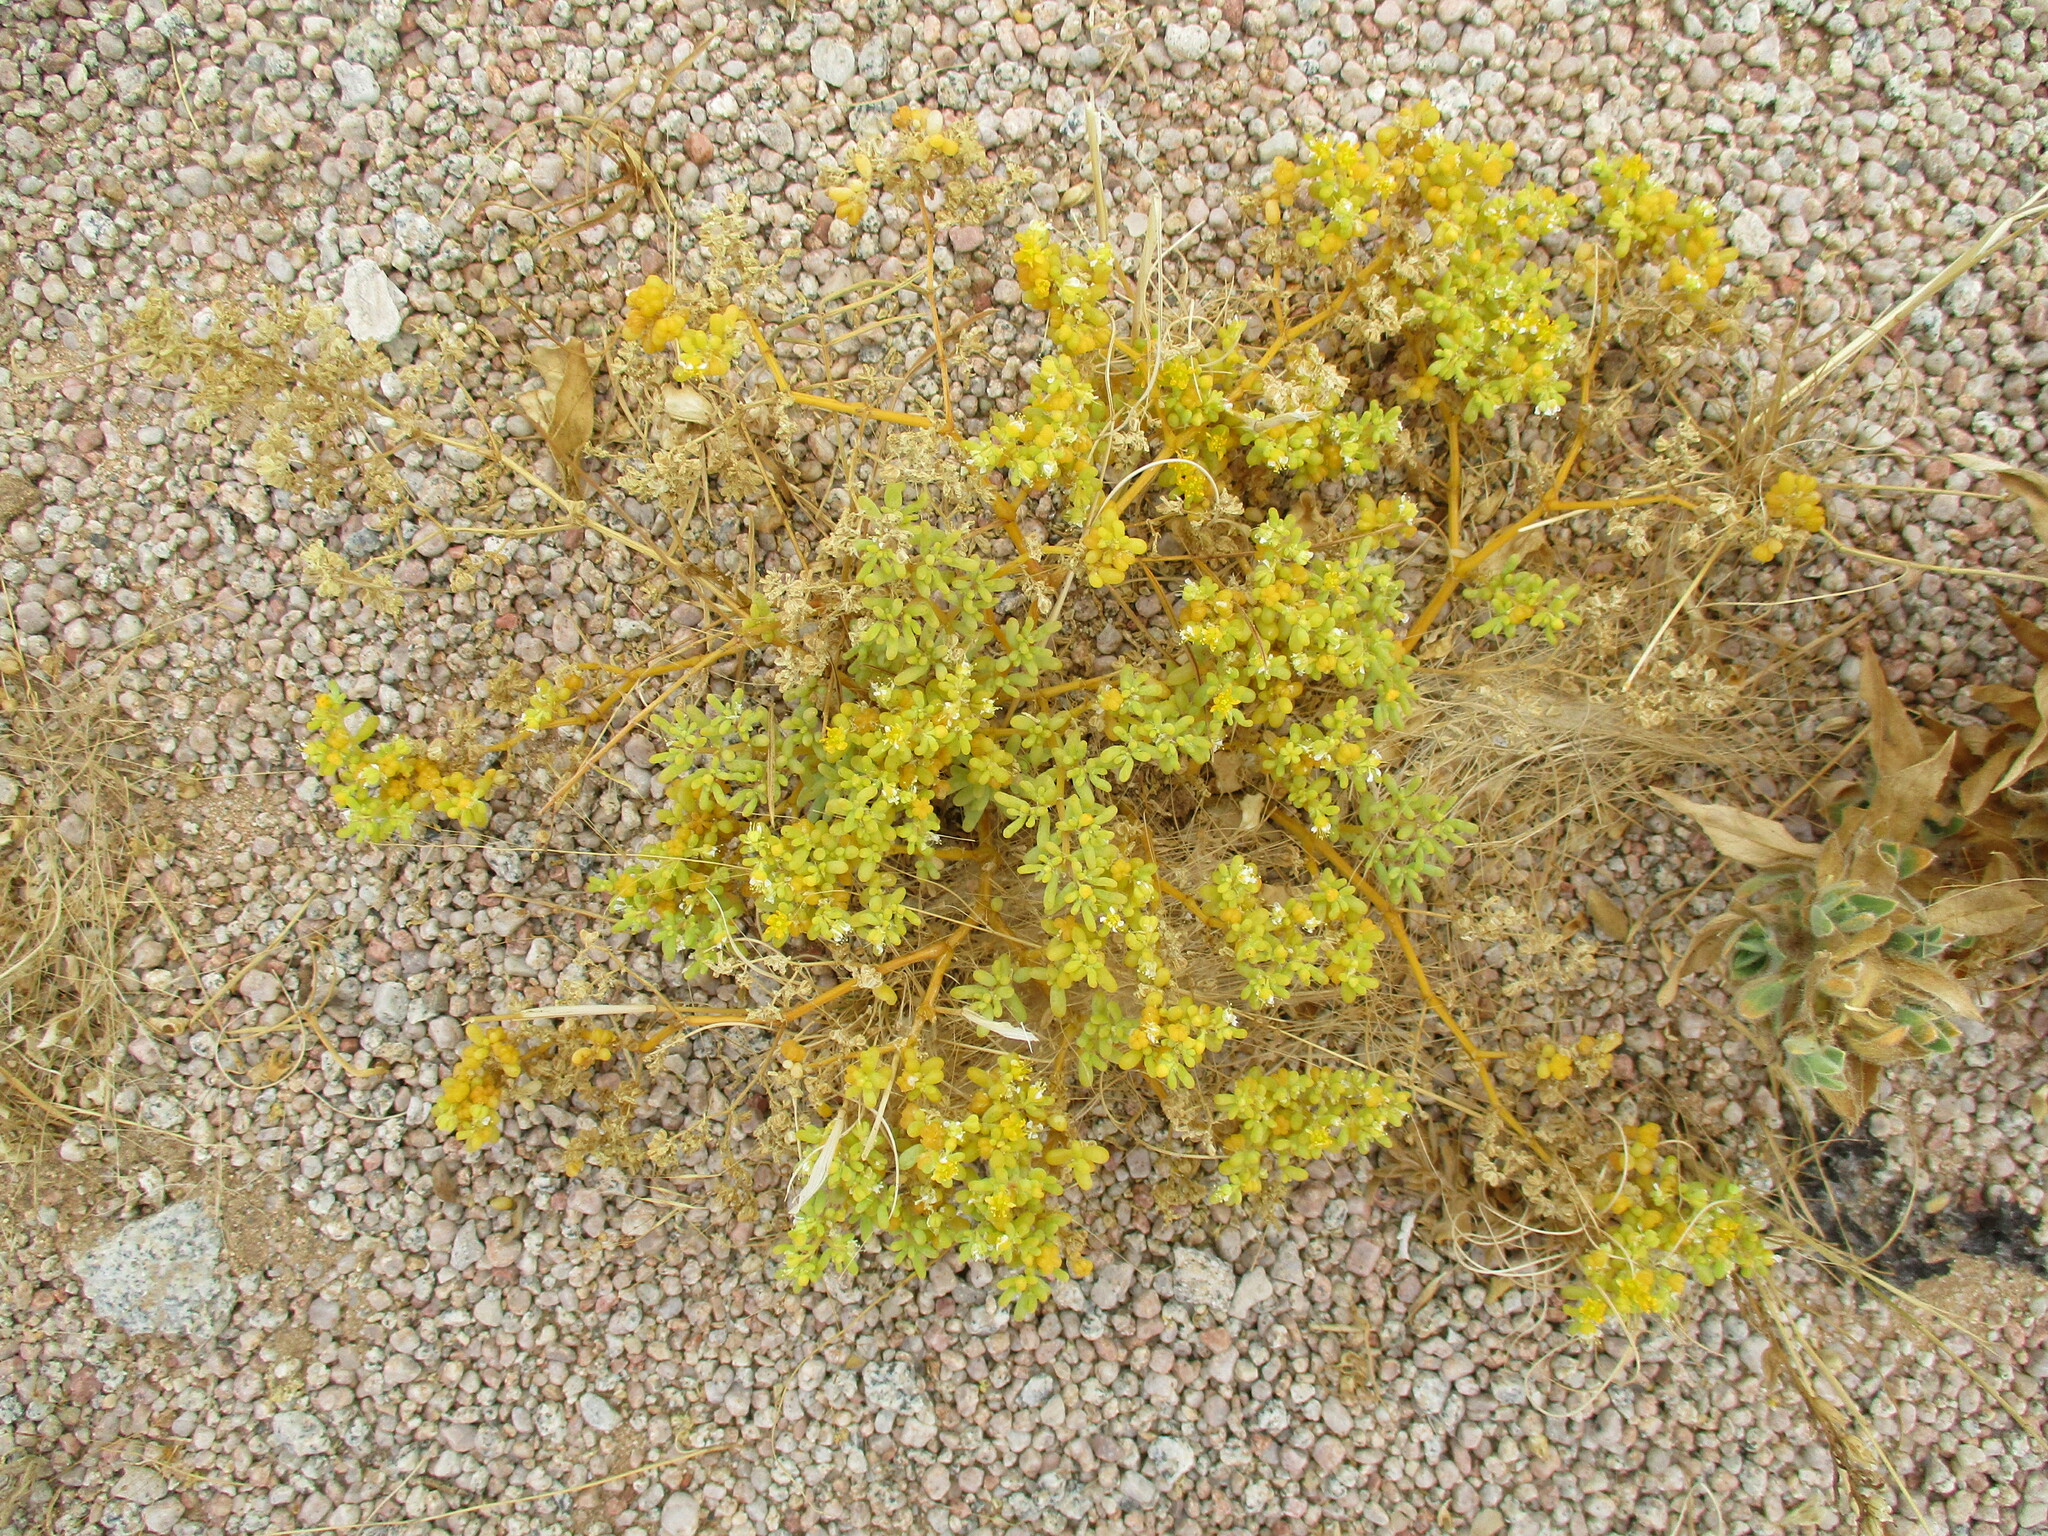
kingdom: Plantae
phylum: Tracheophyta
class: Magnoliopsida
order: Zygophyllales
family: Zygophyllaceae
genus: Tetraena
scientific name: Tetraena simplex
